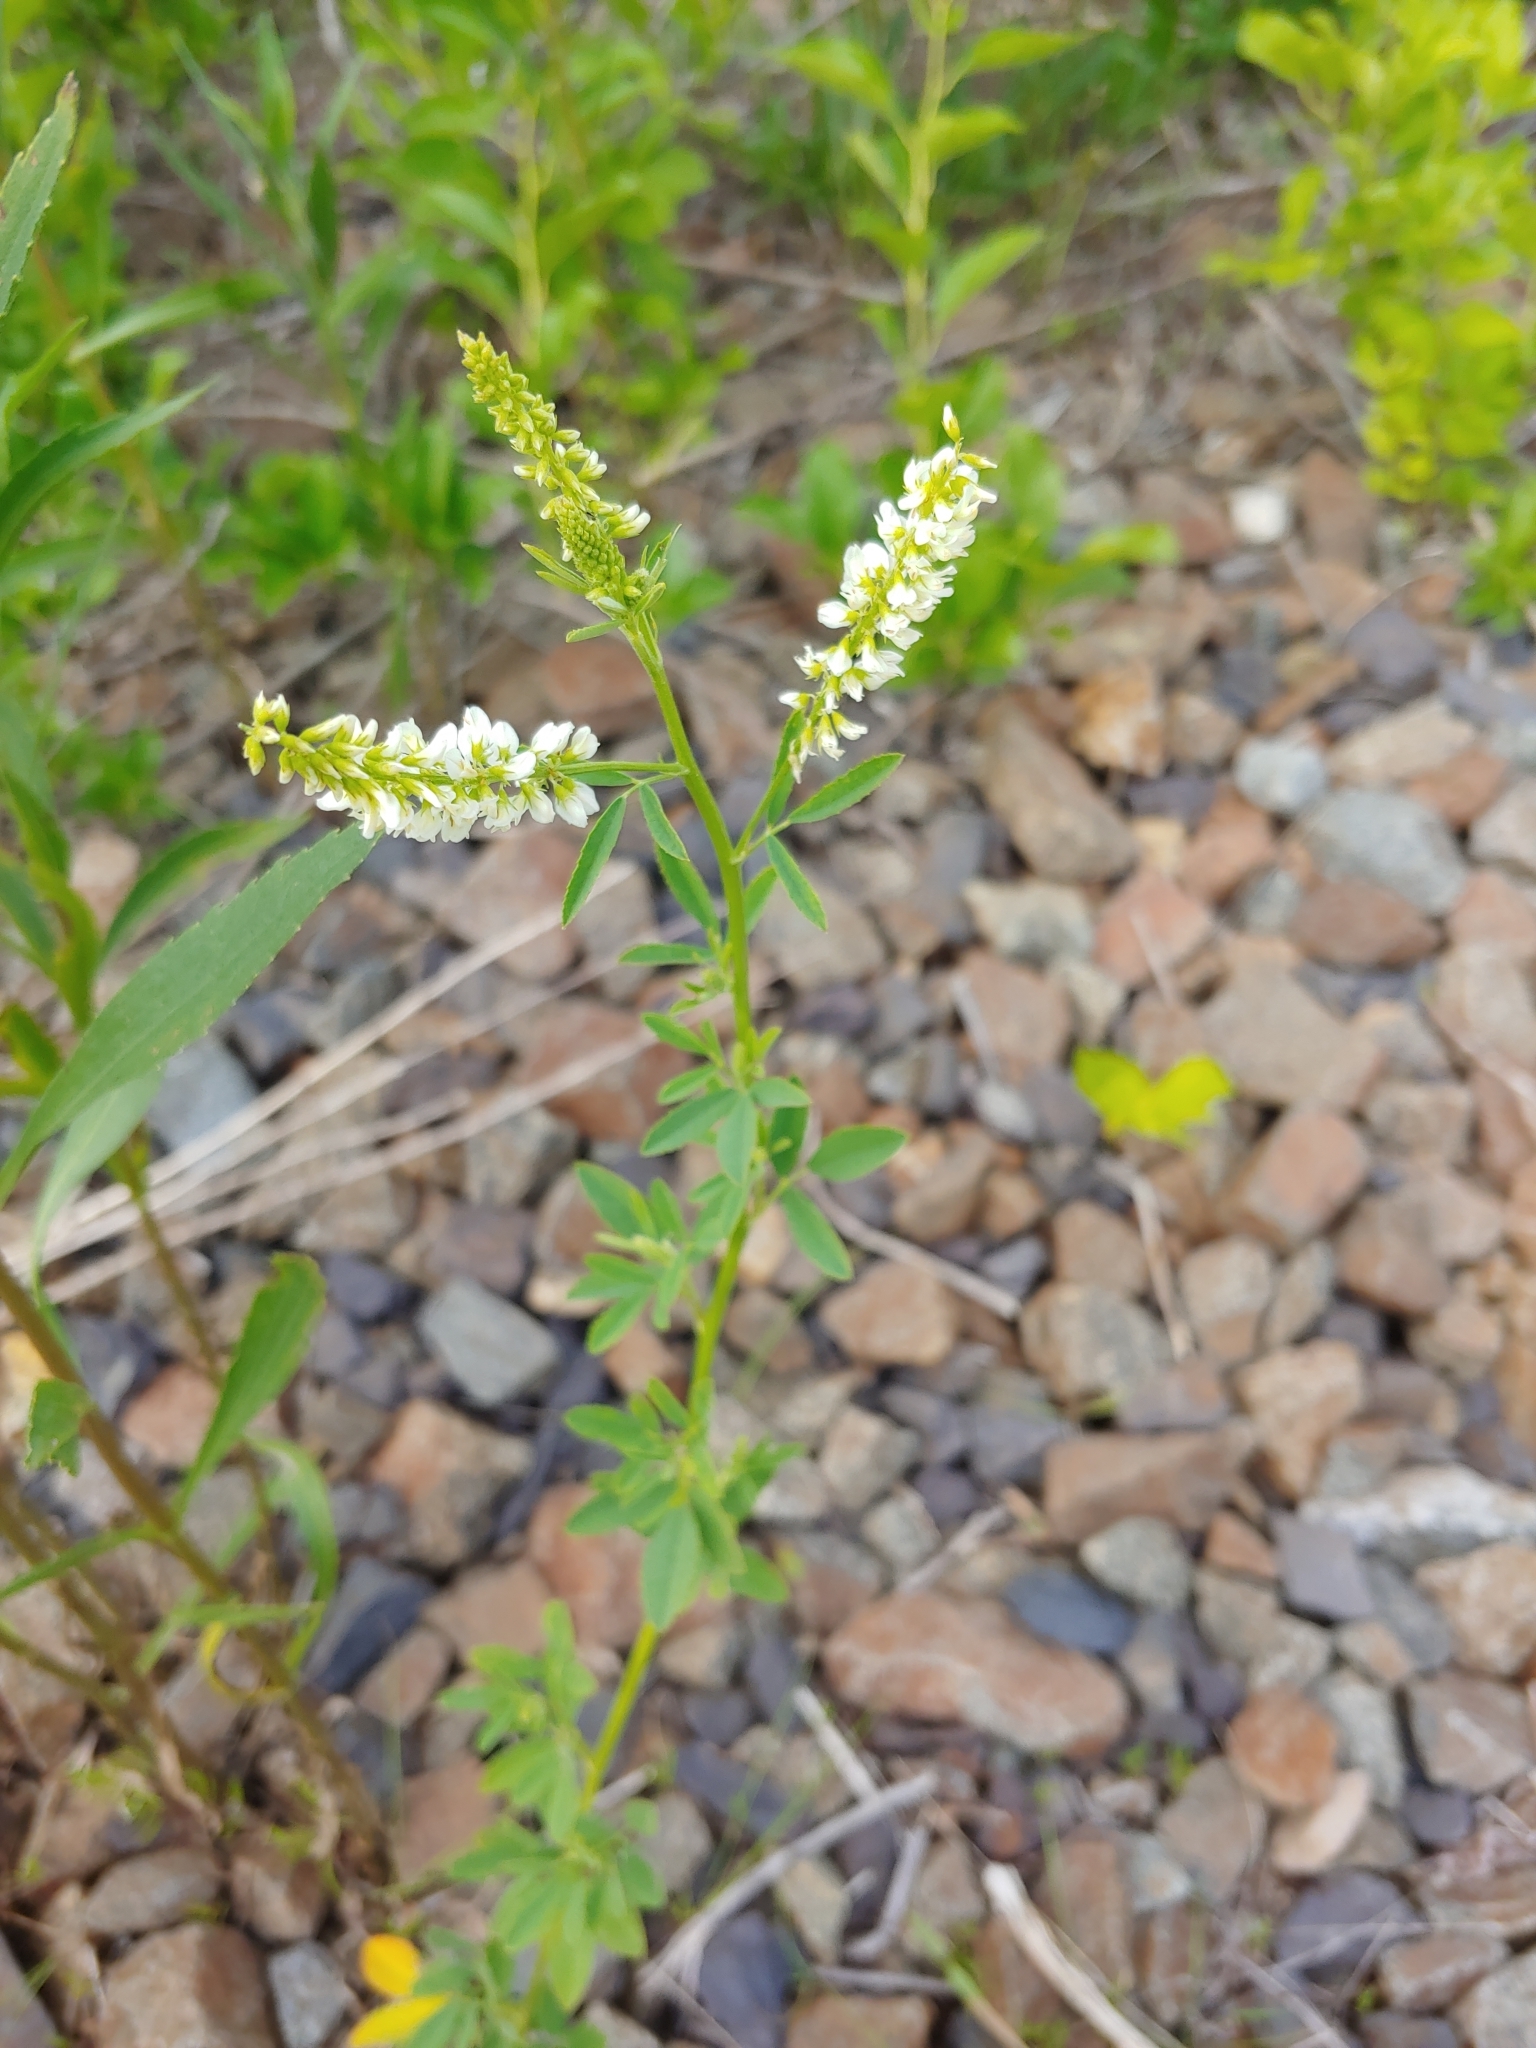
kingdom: Plantae
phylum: Tracheophyta
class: Magnoliopsida
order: Fabales
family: Fabaceae
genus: Melilotus
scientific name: Melilotus albus
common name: White melilot
